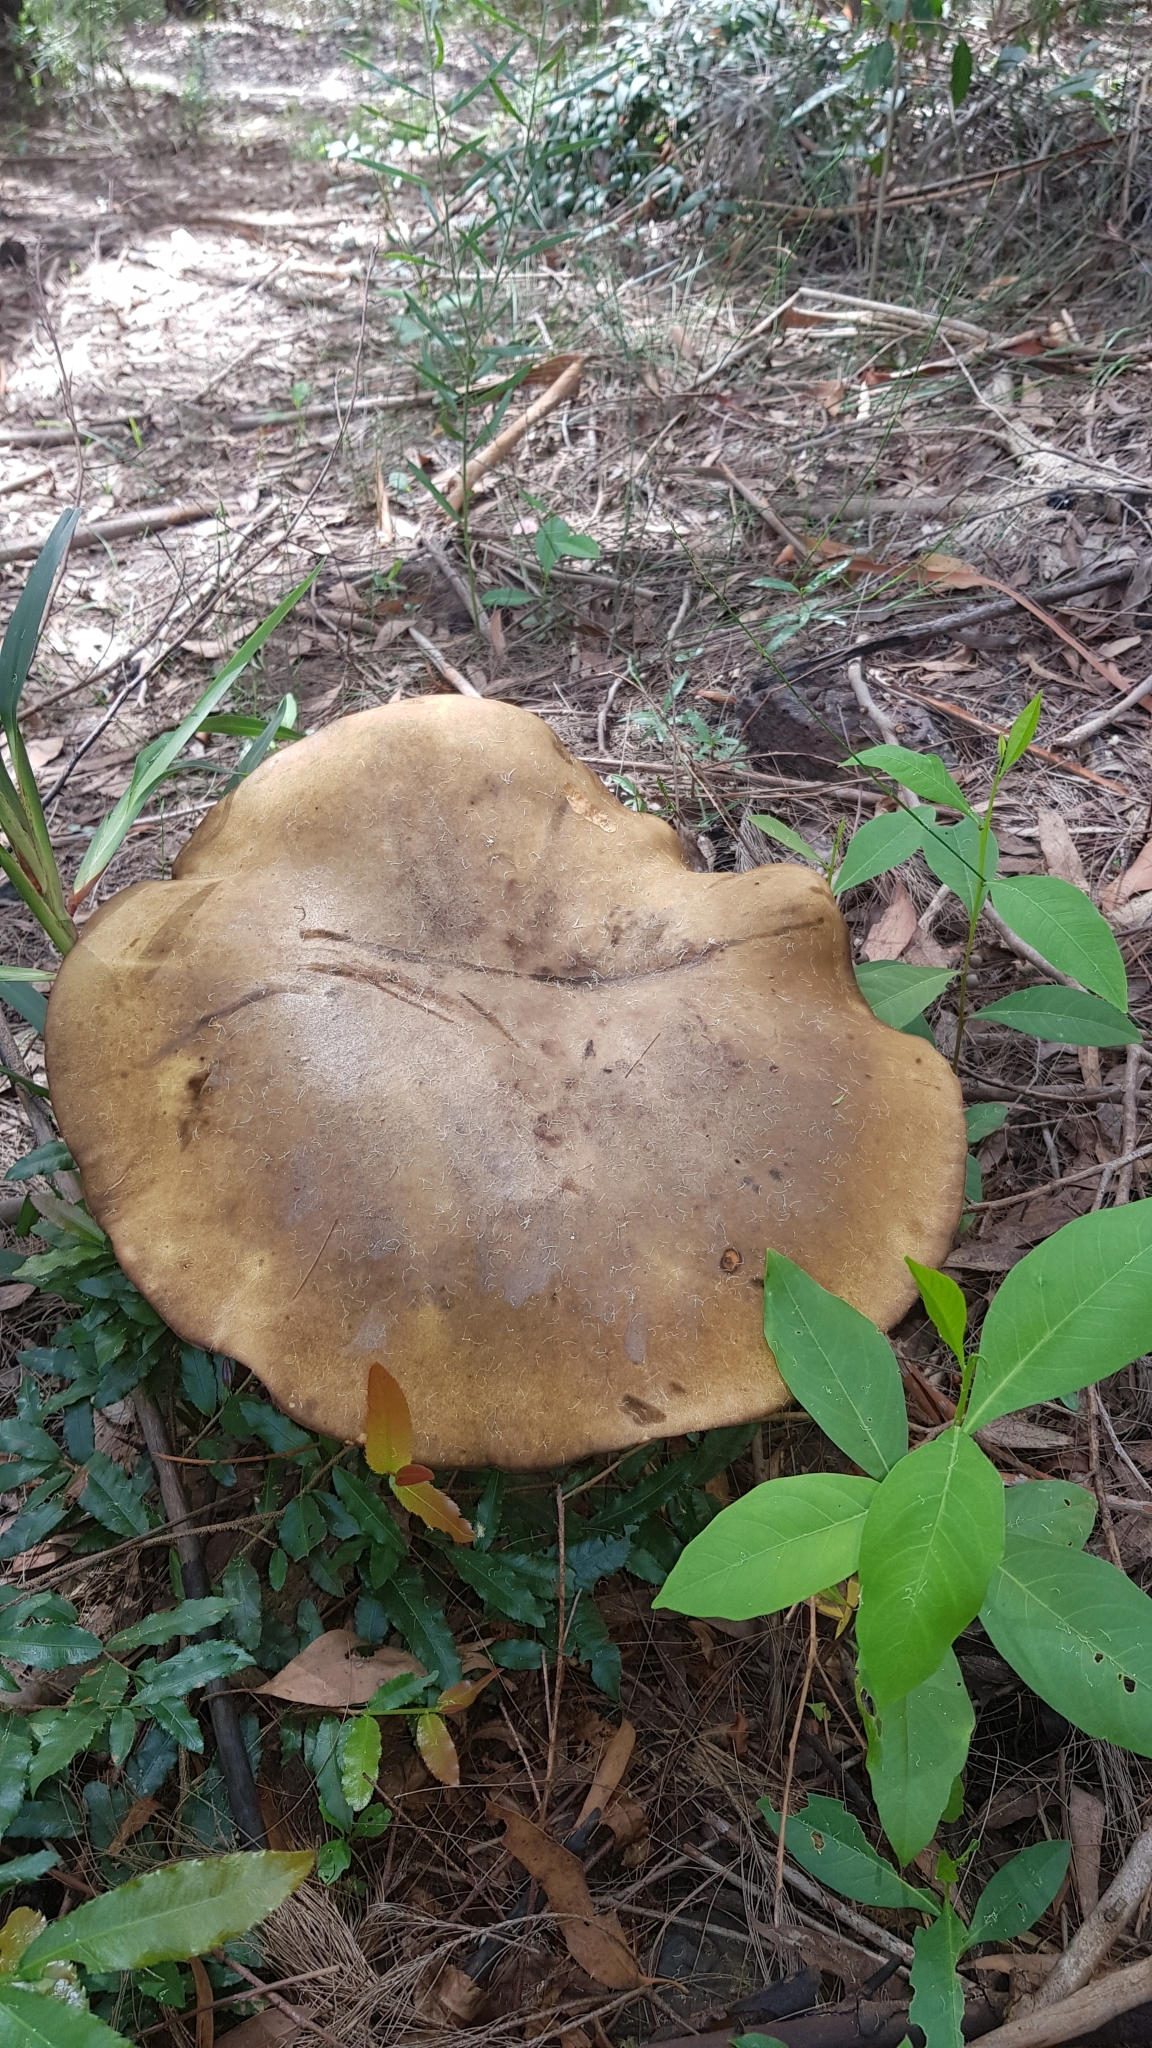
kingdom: Fungi
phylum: Basidiomycota
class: Agaricomycetes
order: Boletales
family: Boletinellaceae
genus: Phlebopus
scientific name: Phlebopus marginatus
